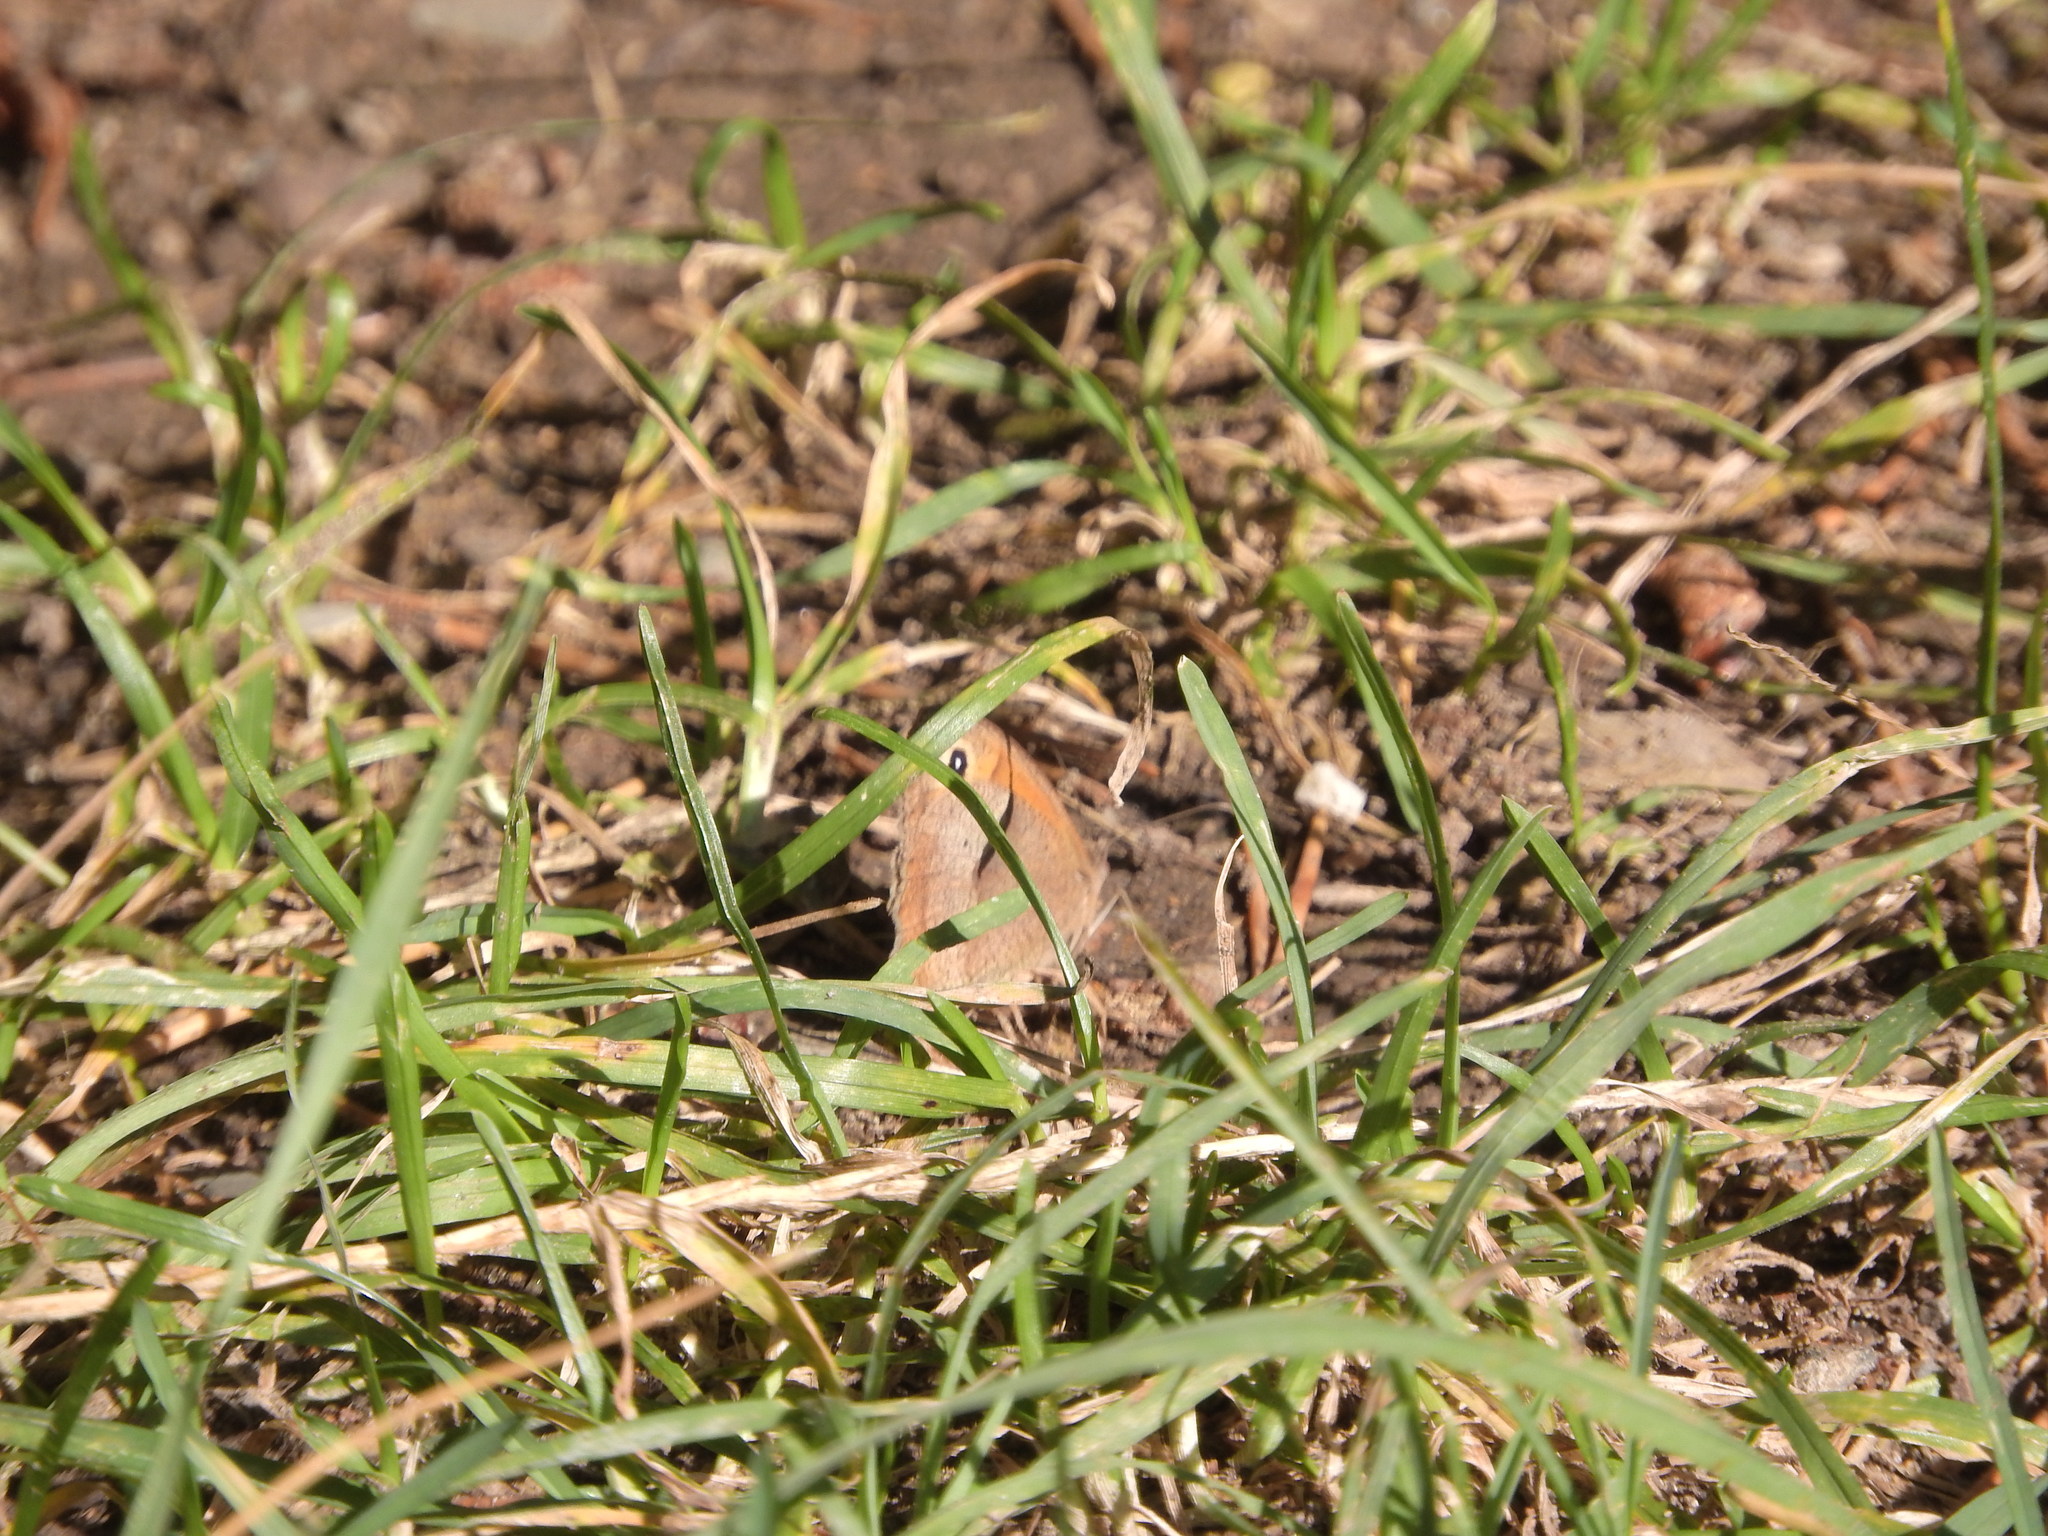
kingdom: Animalia
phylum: Arthropoda
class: Insecta
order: Lepidoptera
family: Nymphalidae
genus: Maniola
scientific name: Maniola jurtina
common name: Meadow brown
